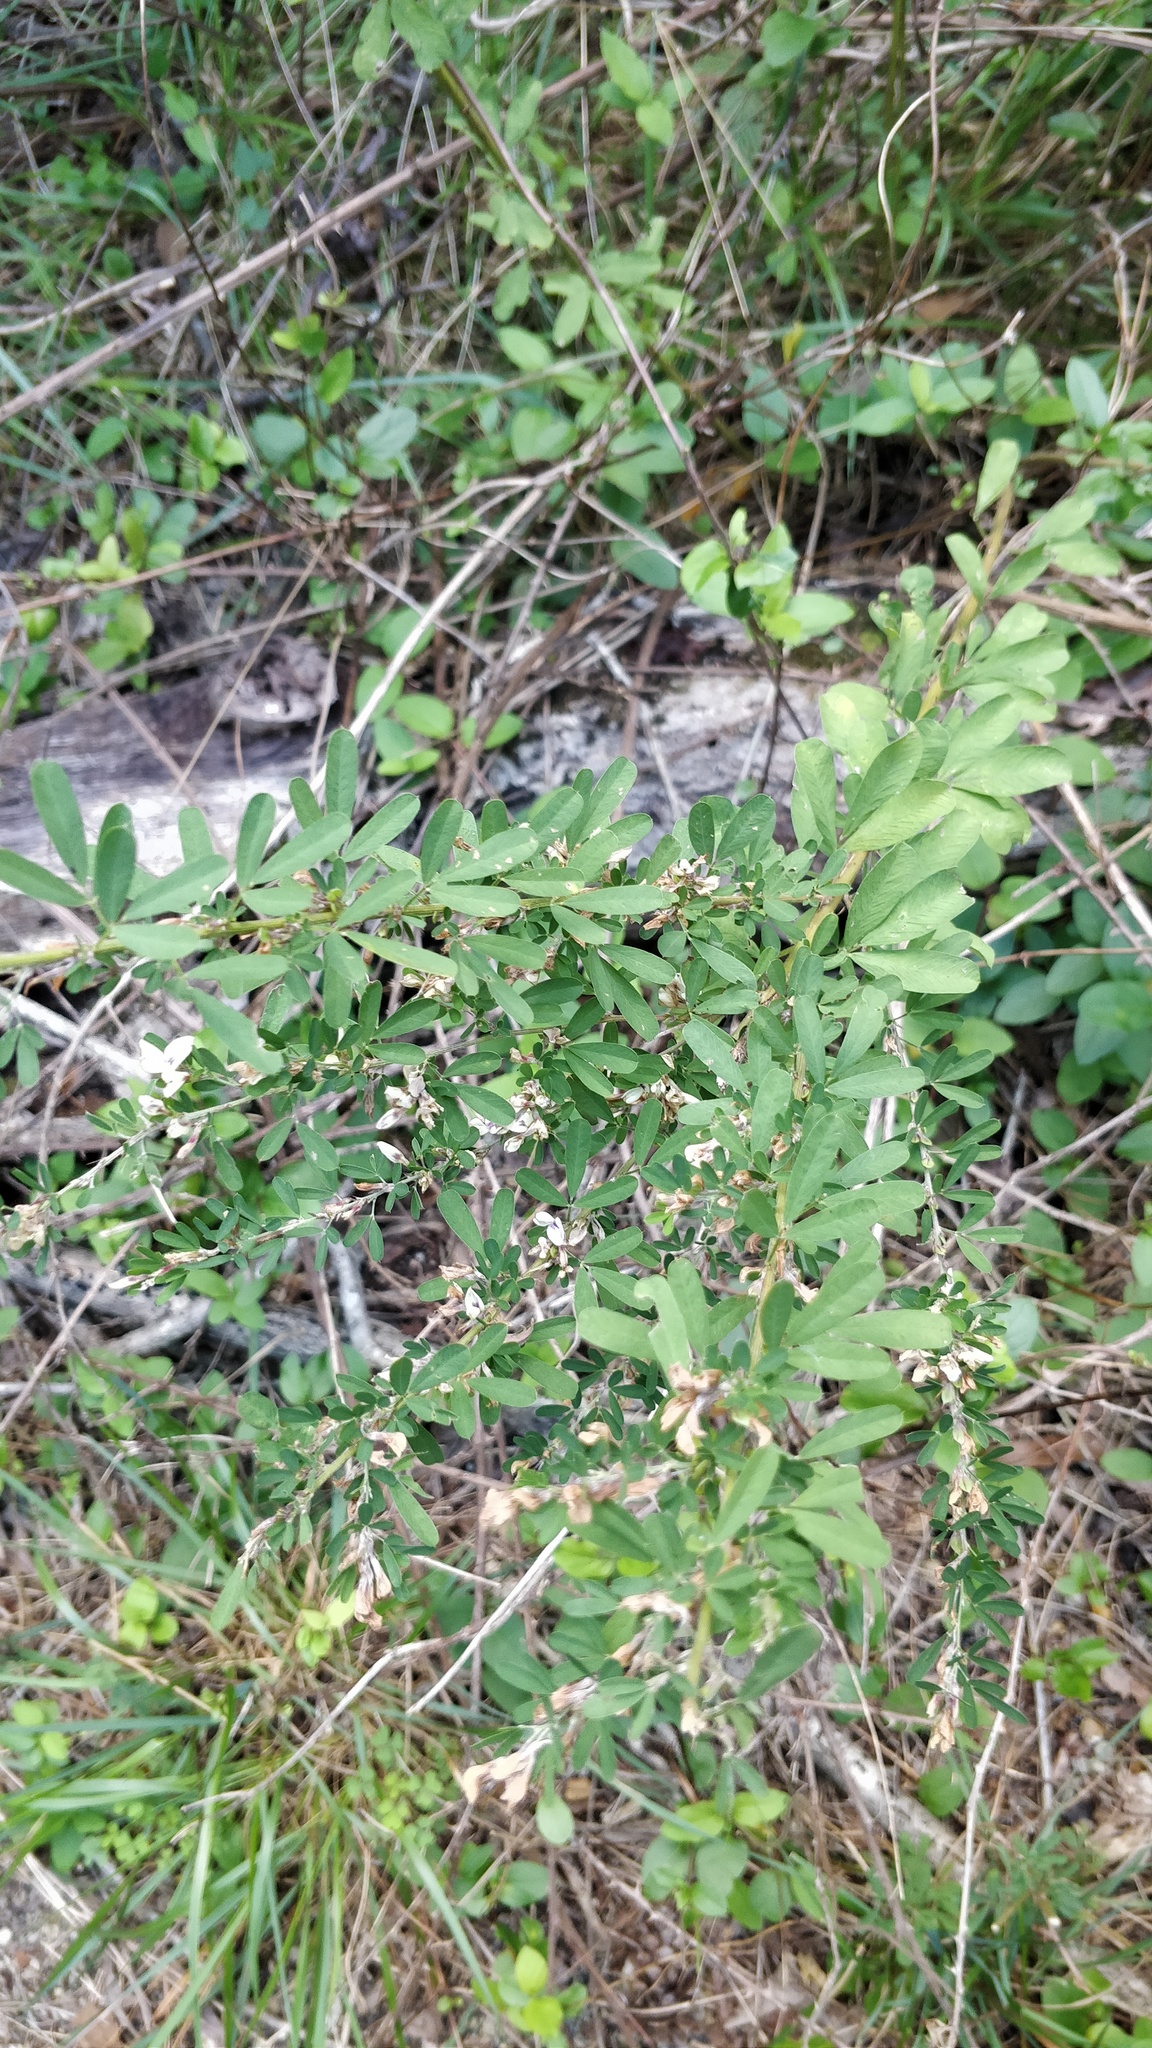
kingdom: Plantae
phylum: Tracheophyta
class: Magnoliopsida
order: Fabales
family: Fabaceae
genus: Lespedeza
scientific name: Lespedeza cuneata
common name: Chinese bush-clover
